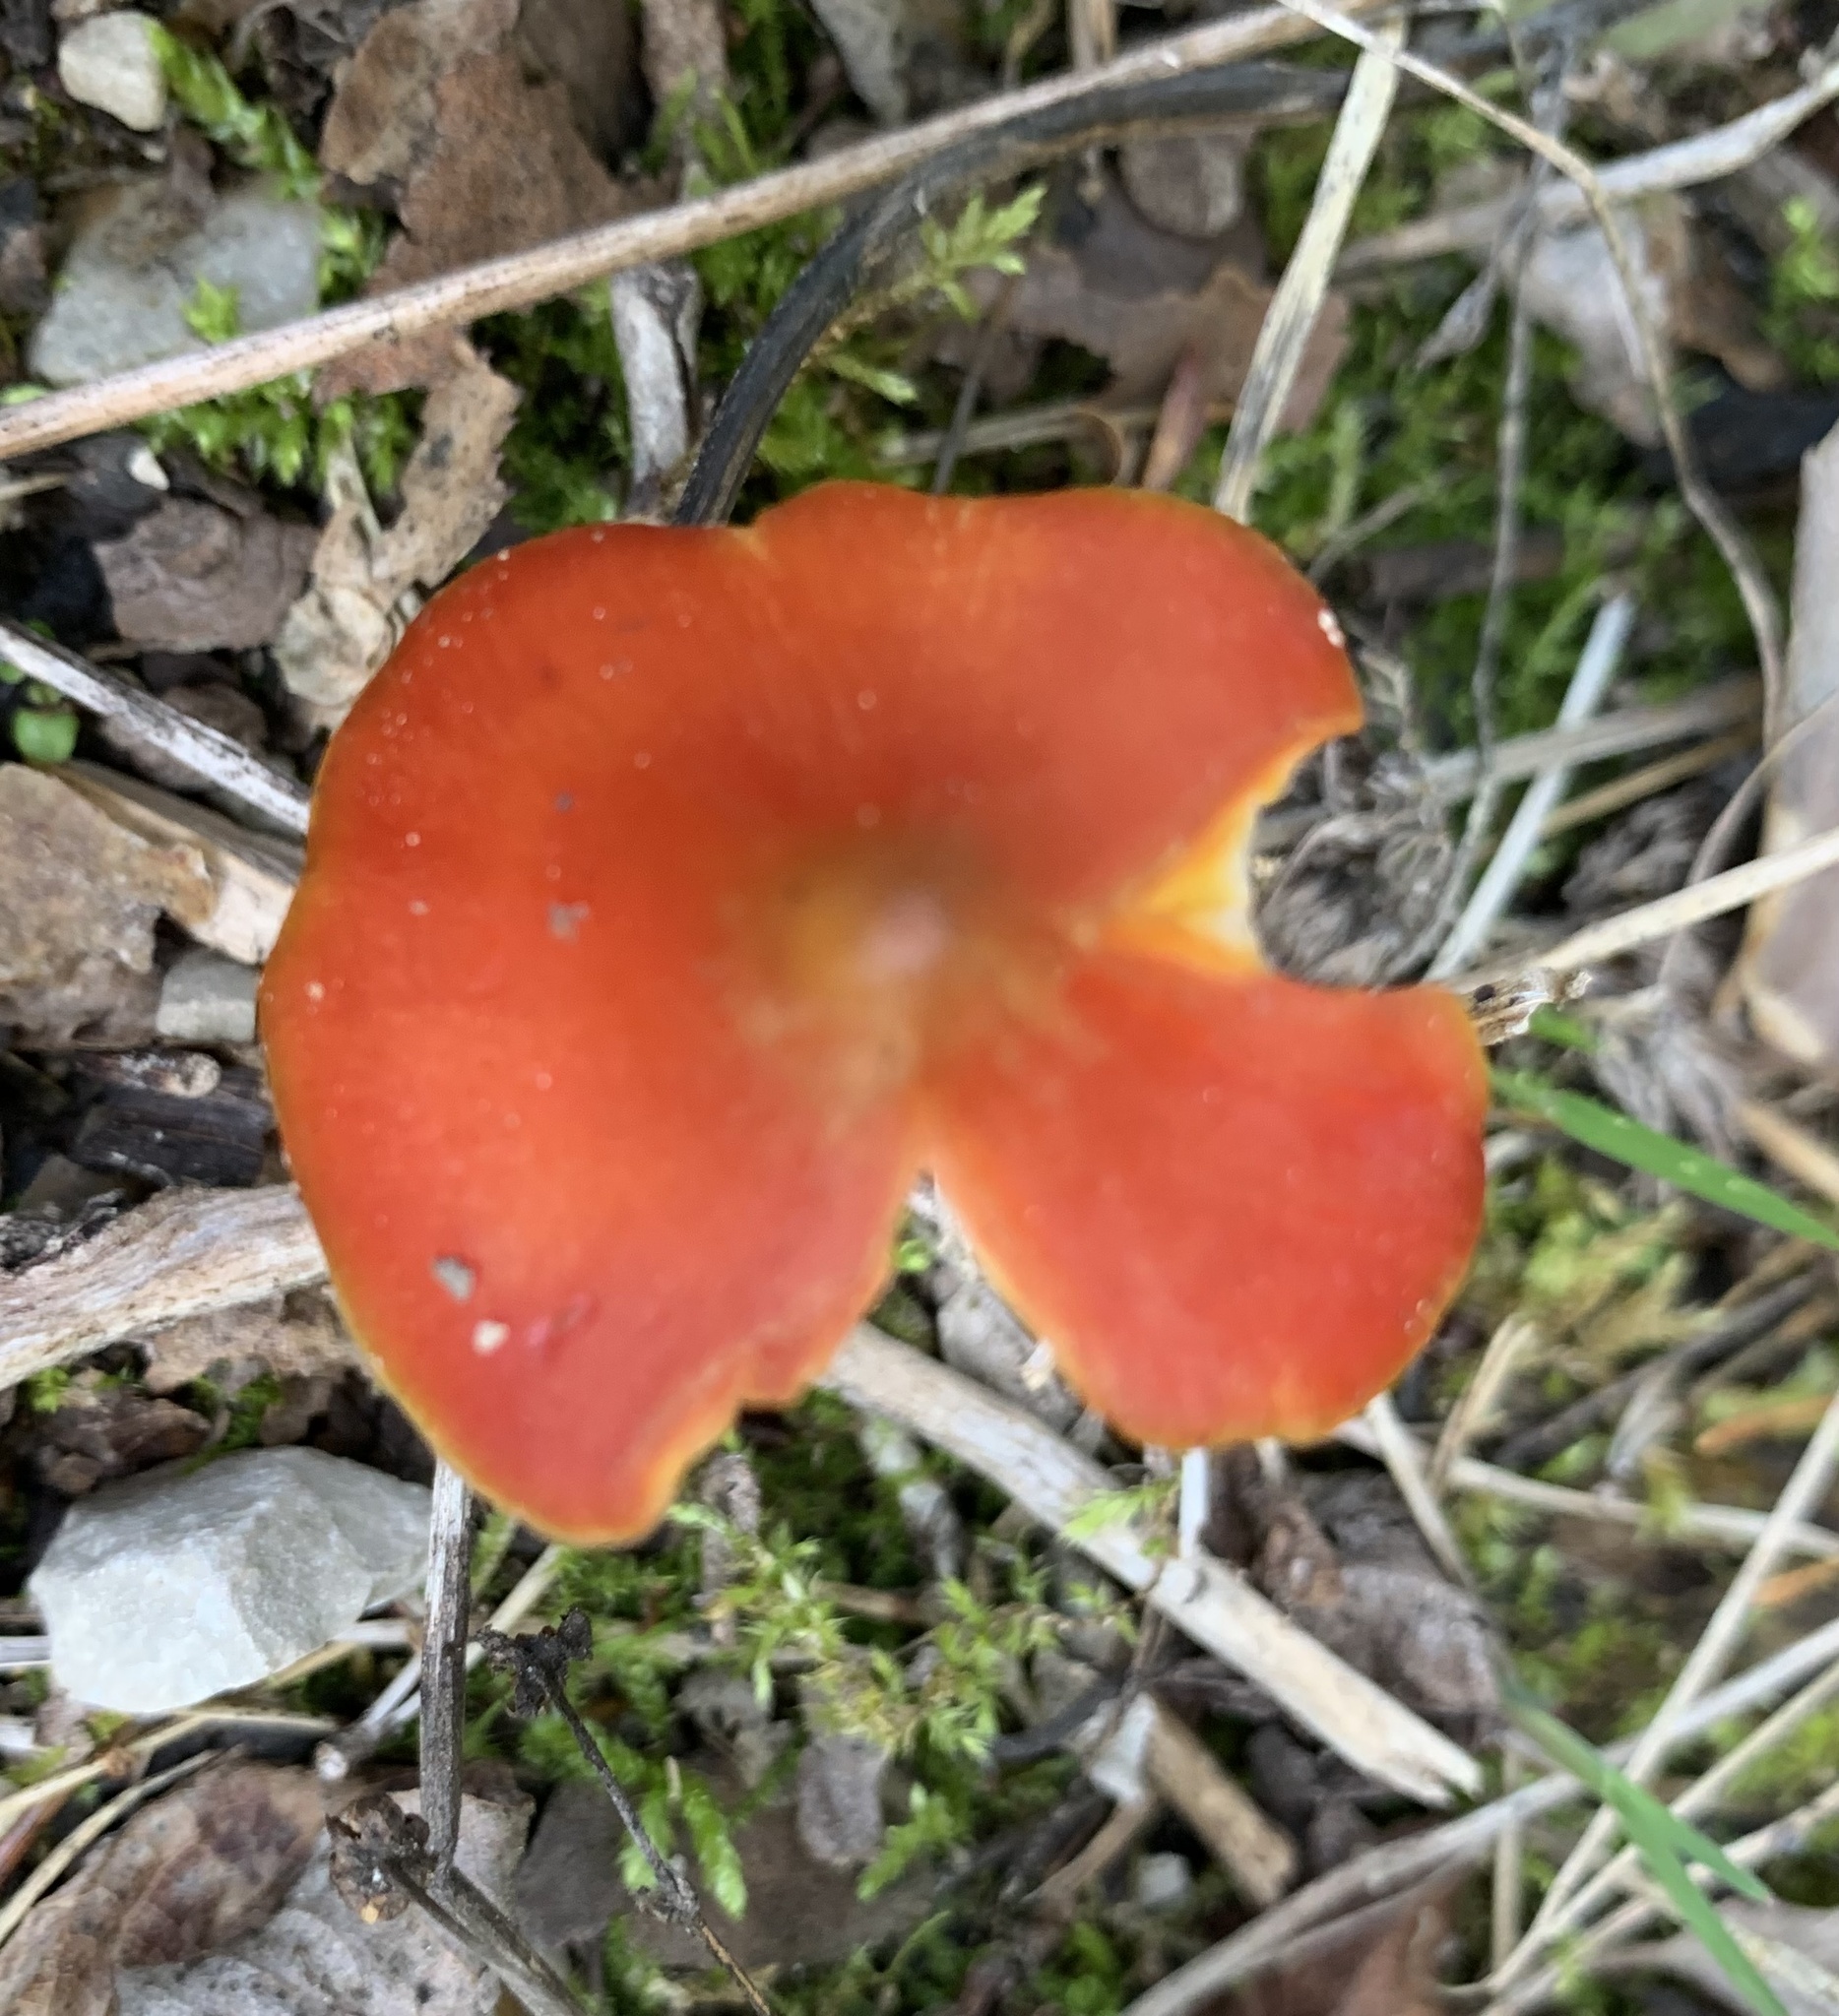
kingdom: Fungi
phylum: Basidiomycota
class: Agaricomycetes
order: Agaricales
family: Hygrophoraceae
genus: Hygrocybe
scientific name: Hygrocybe conica
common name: Blackening wax-cap
